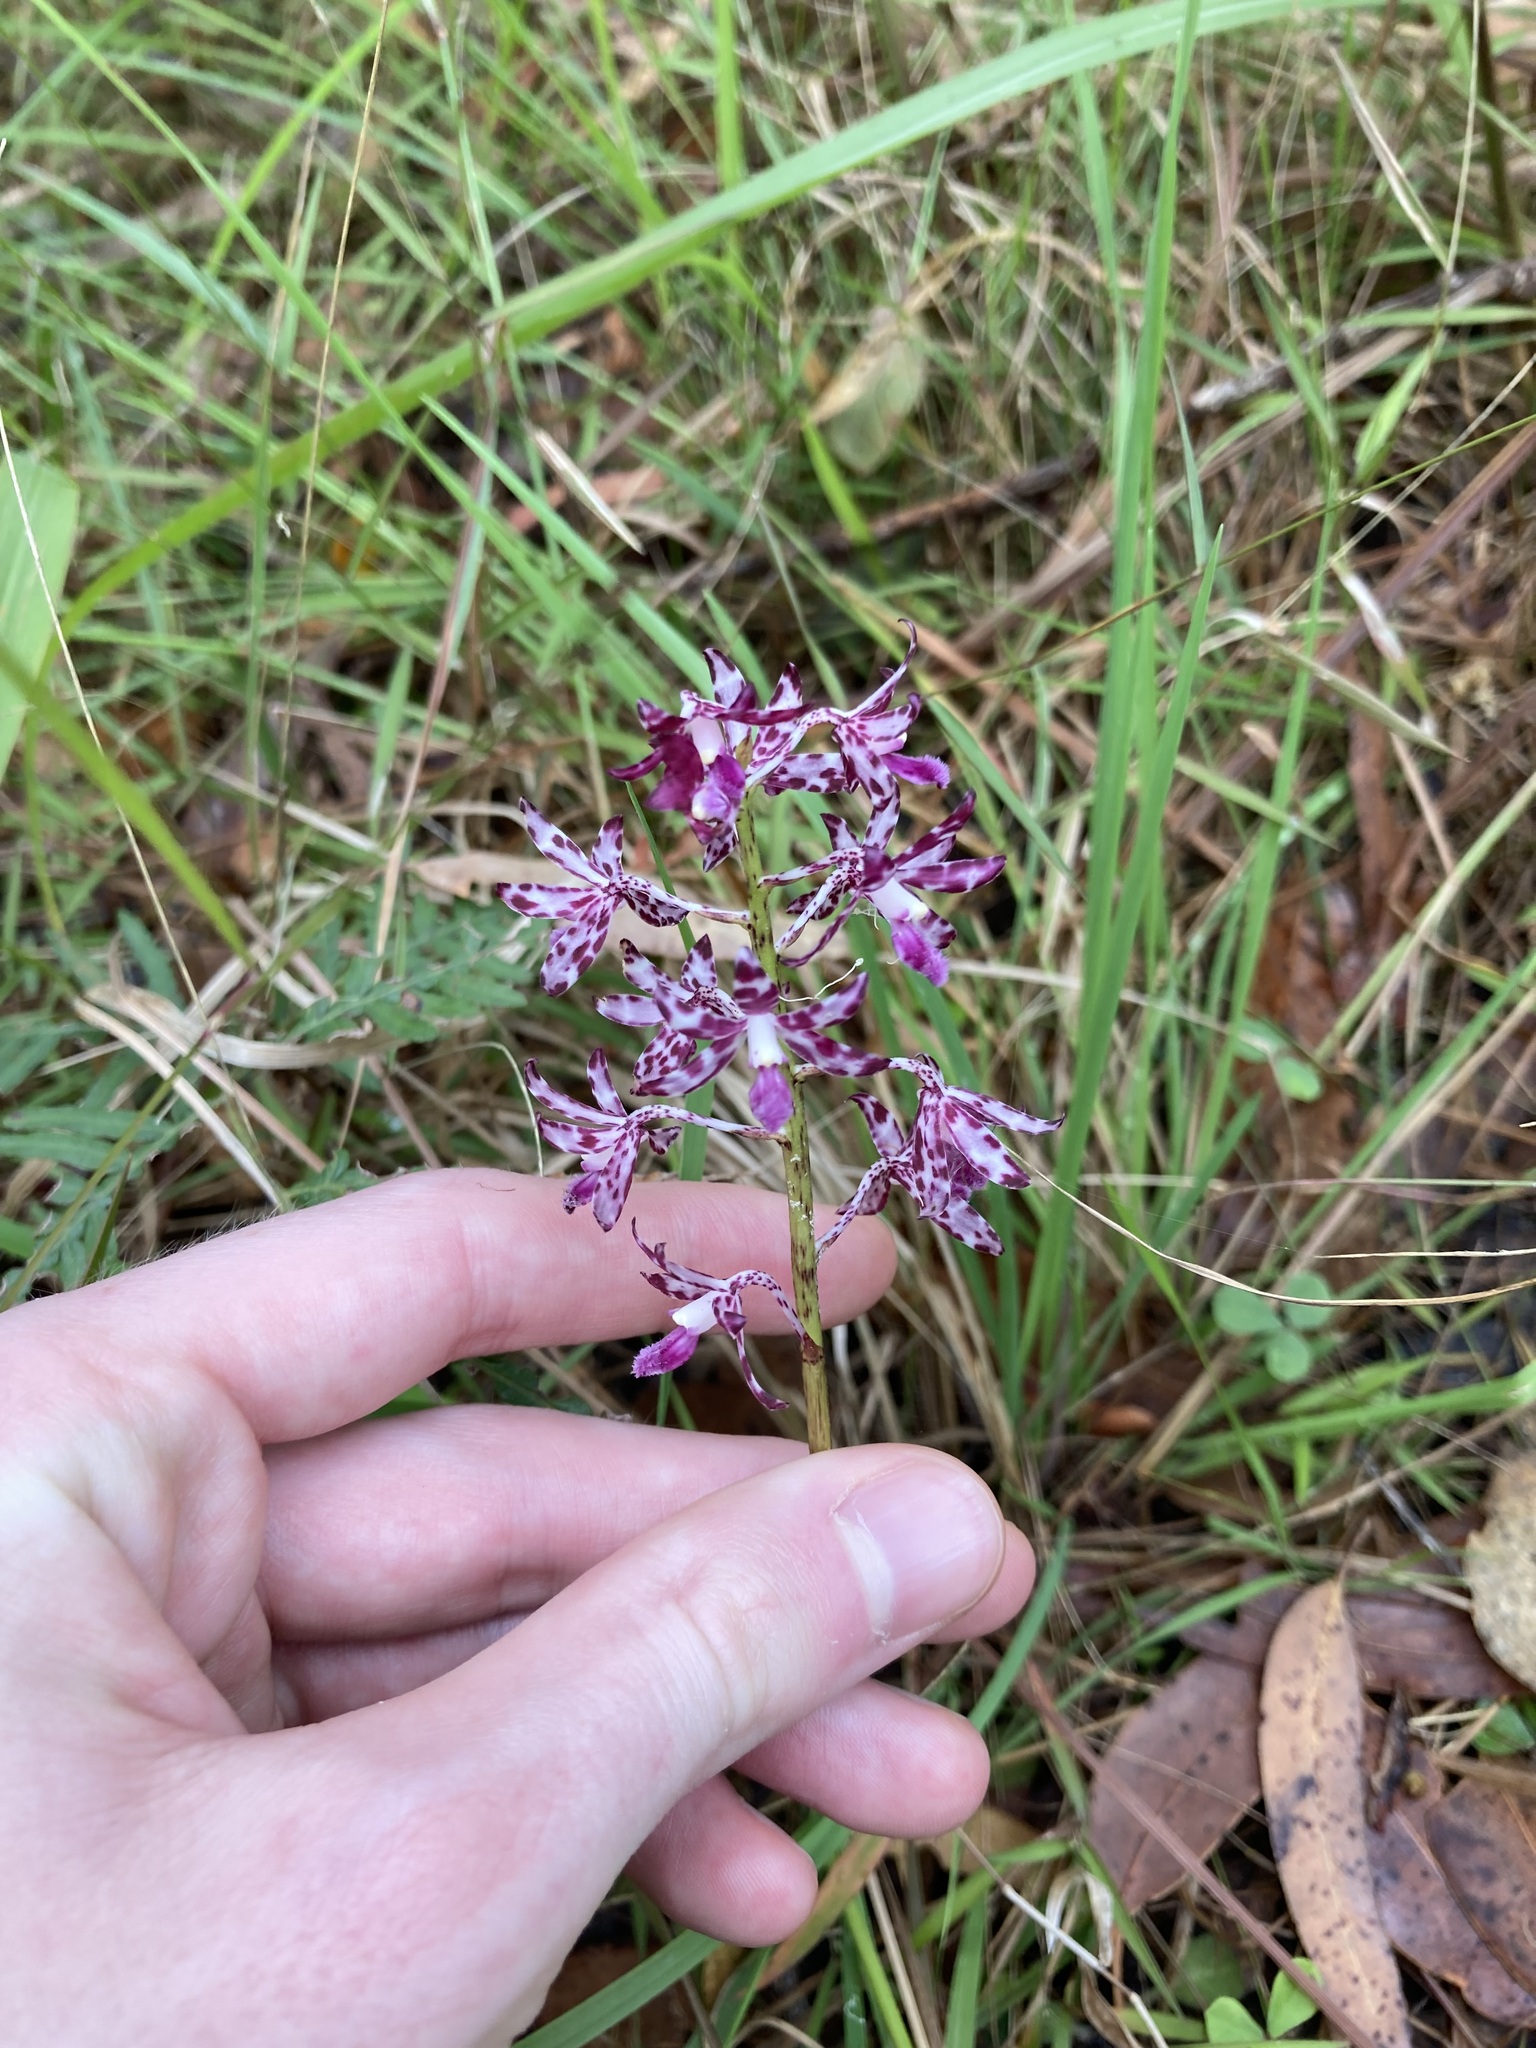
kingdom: Plantae
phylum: Tracheophyta
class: Liliopsida
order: Asparagales
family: Orchidaceae
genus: Dipodium
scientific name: Dipodium variegatum
